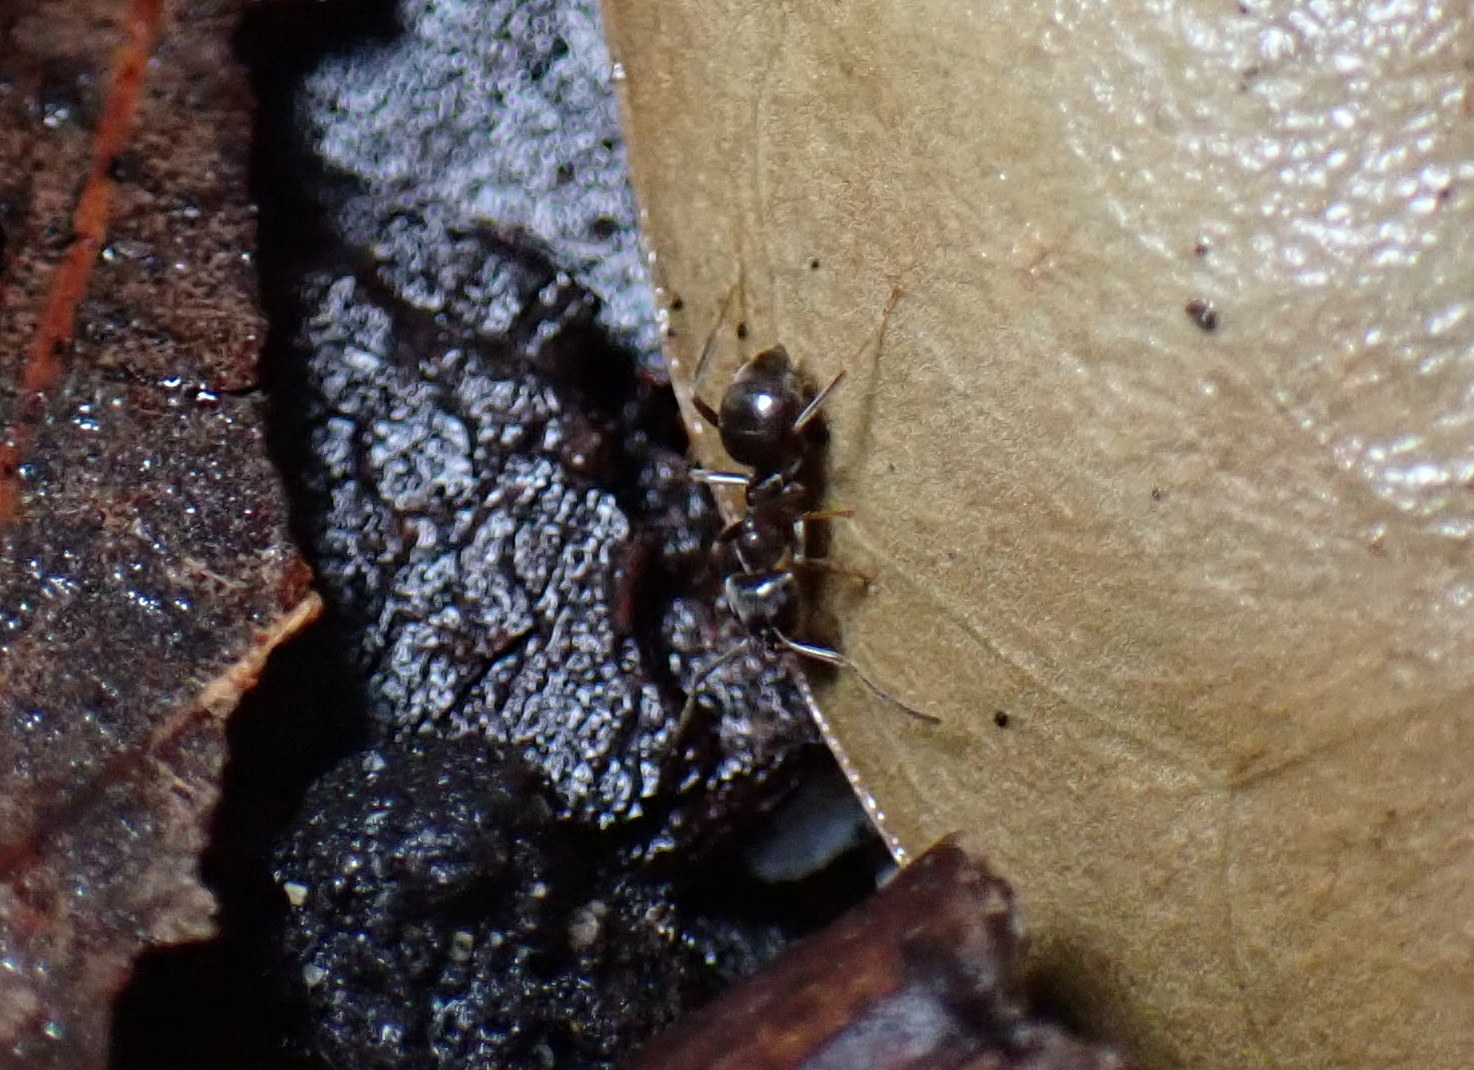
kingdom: Animalia
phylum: Arthropoda
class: Insecta
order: Hymenoptera
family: Formicidae
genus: Lasius
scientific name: Lasius japonicus
